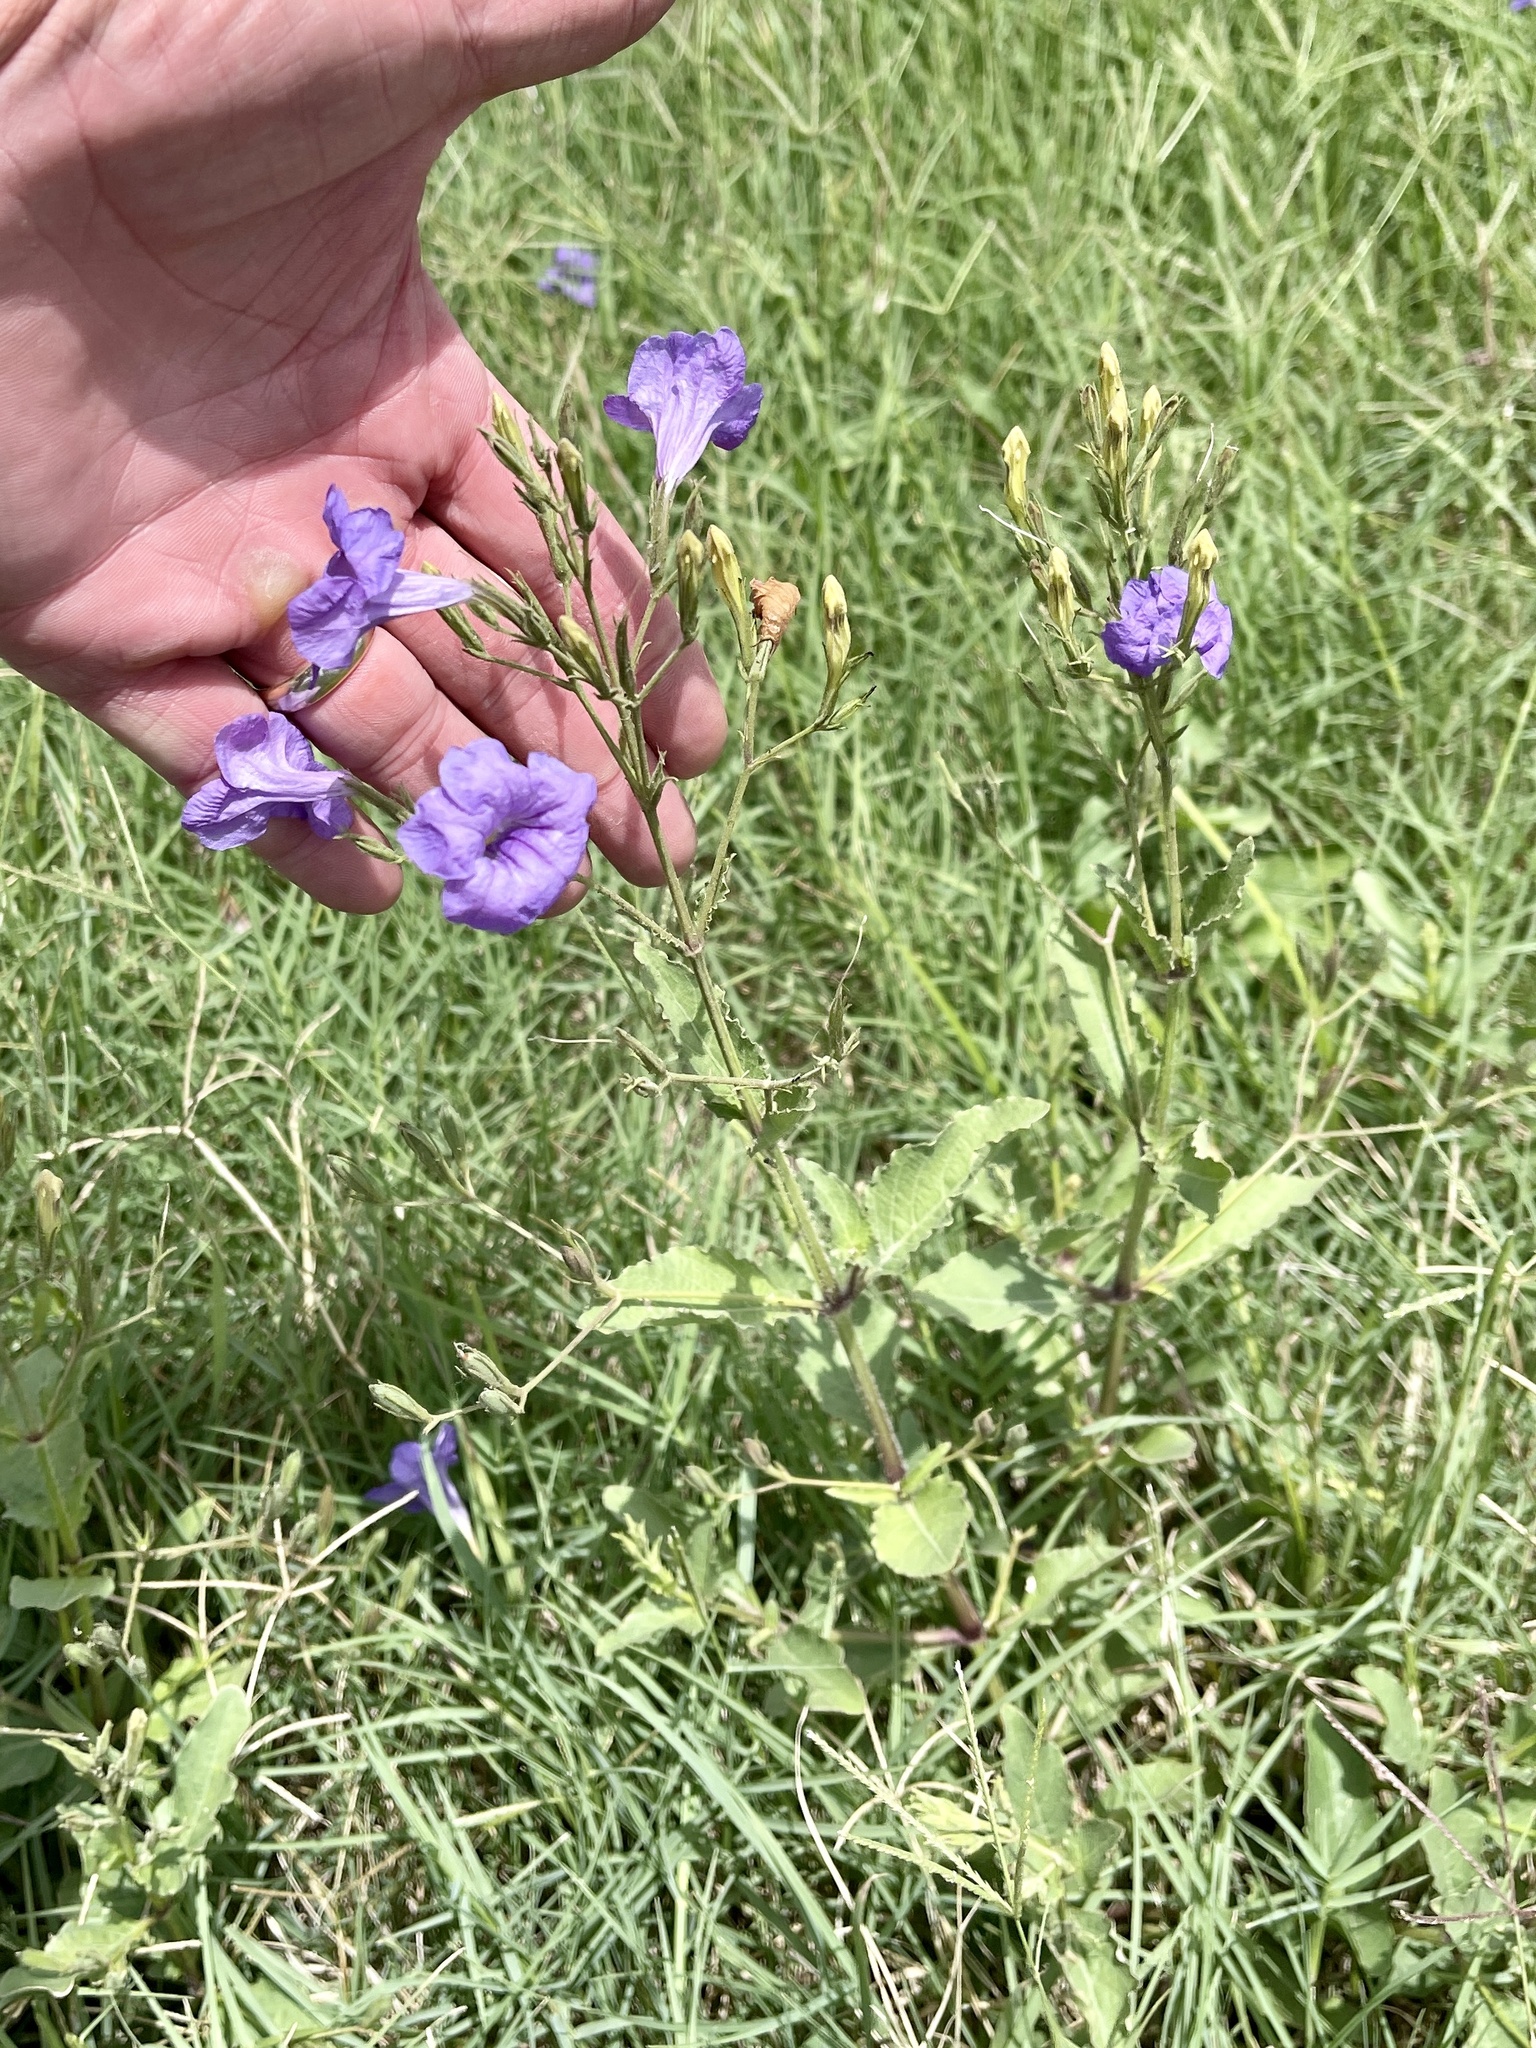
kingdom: Plantae
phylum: Tracheophyta
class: Magnoliopsida
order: Lamiales
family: Acanthaceae
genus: Ruellia
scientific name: Ruellia ciliatiflora
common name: Hairyflower wild petunia
